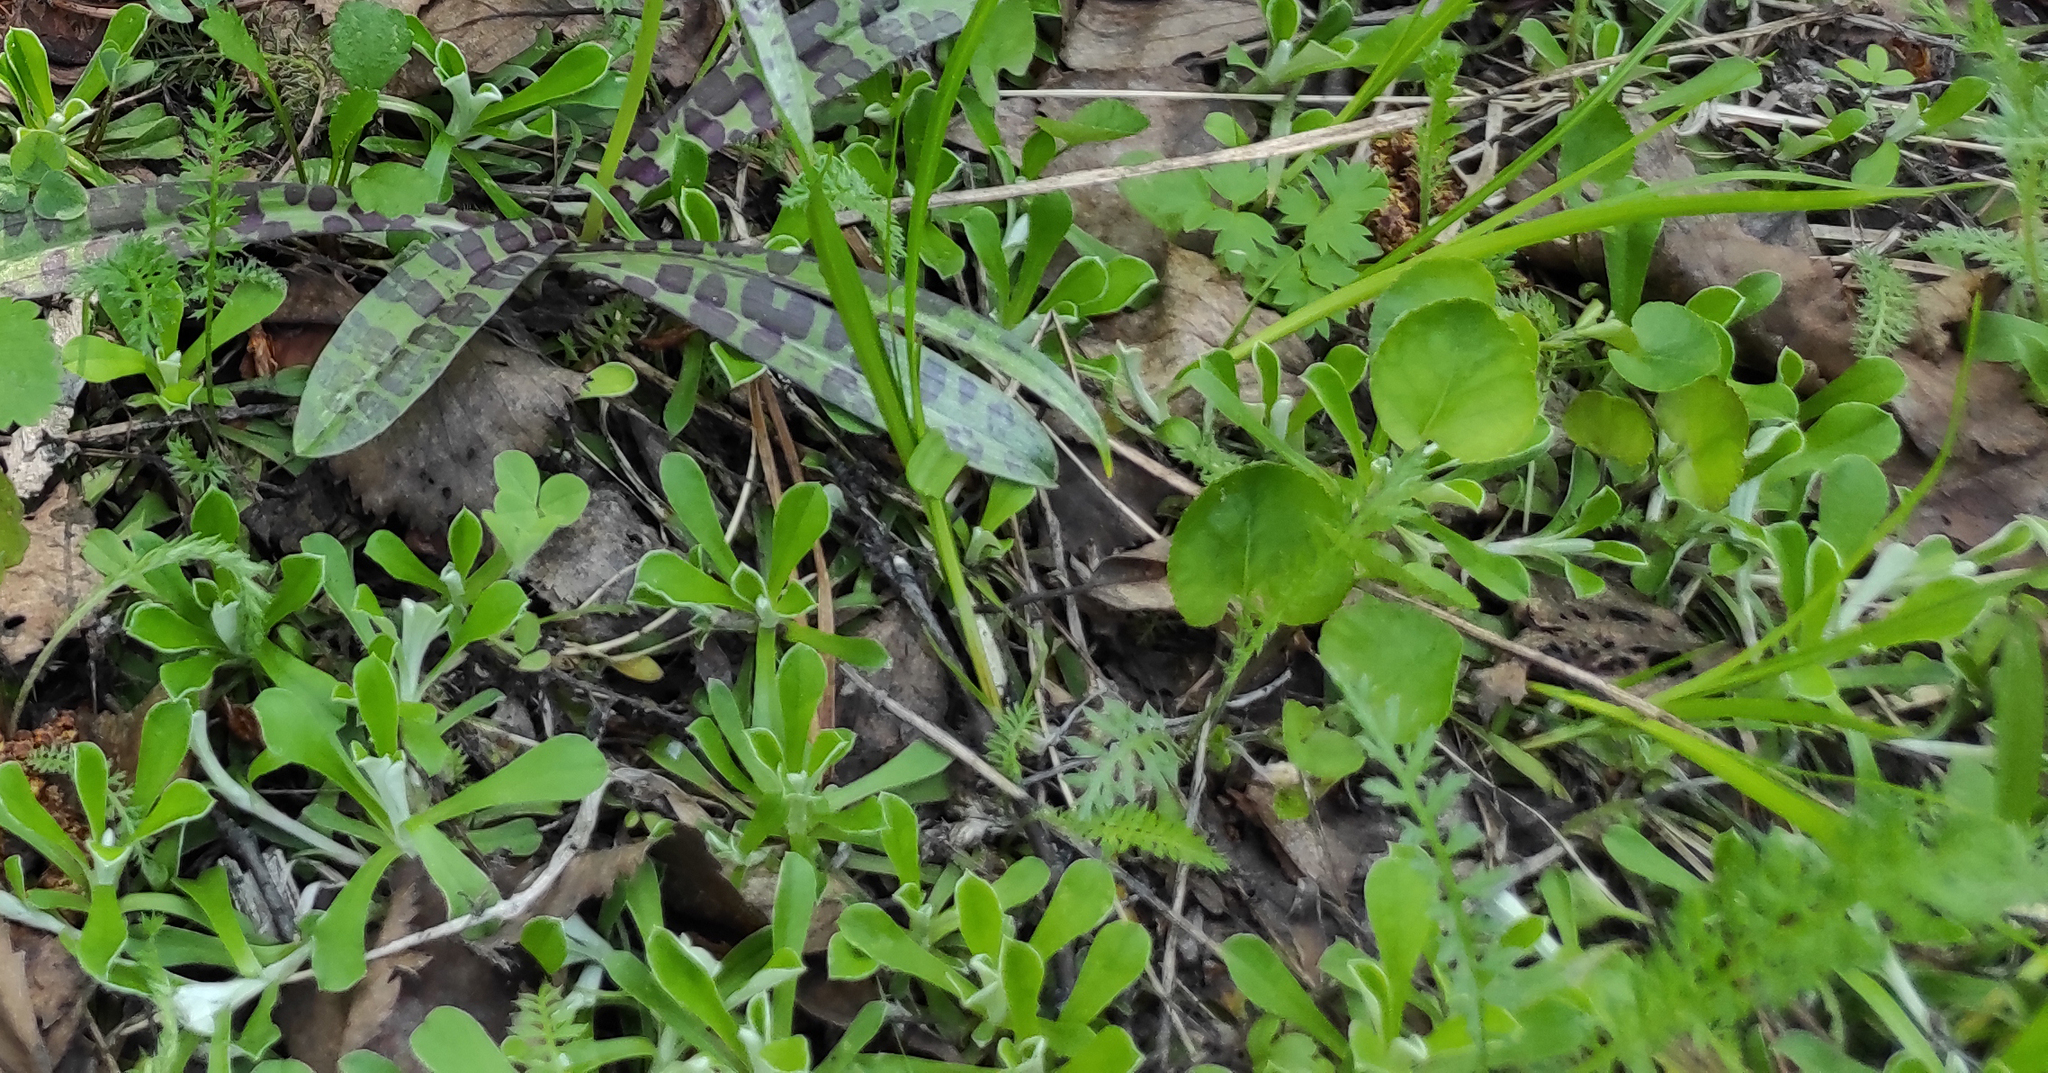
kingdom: Plantae
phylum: Tracheophyta
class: Magnoliopsida
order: Asterales
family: Asteraceae
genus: Antennaria
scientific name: Antennaria dioica
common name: Mountain everlasting
